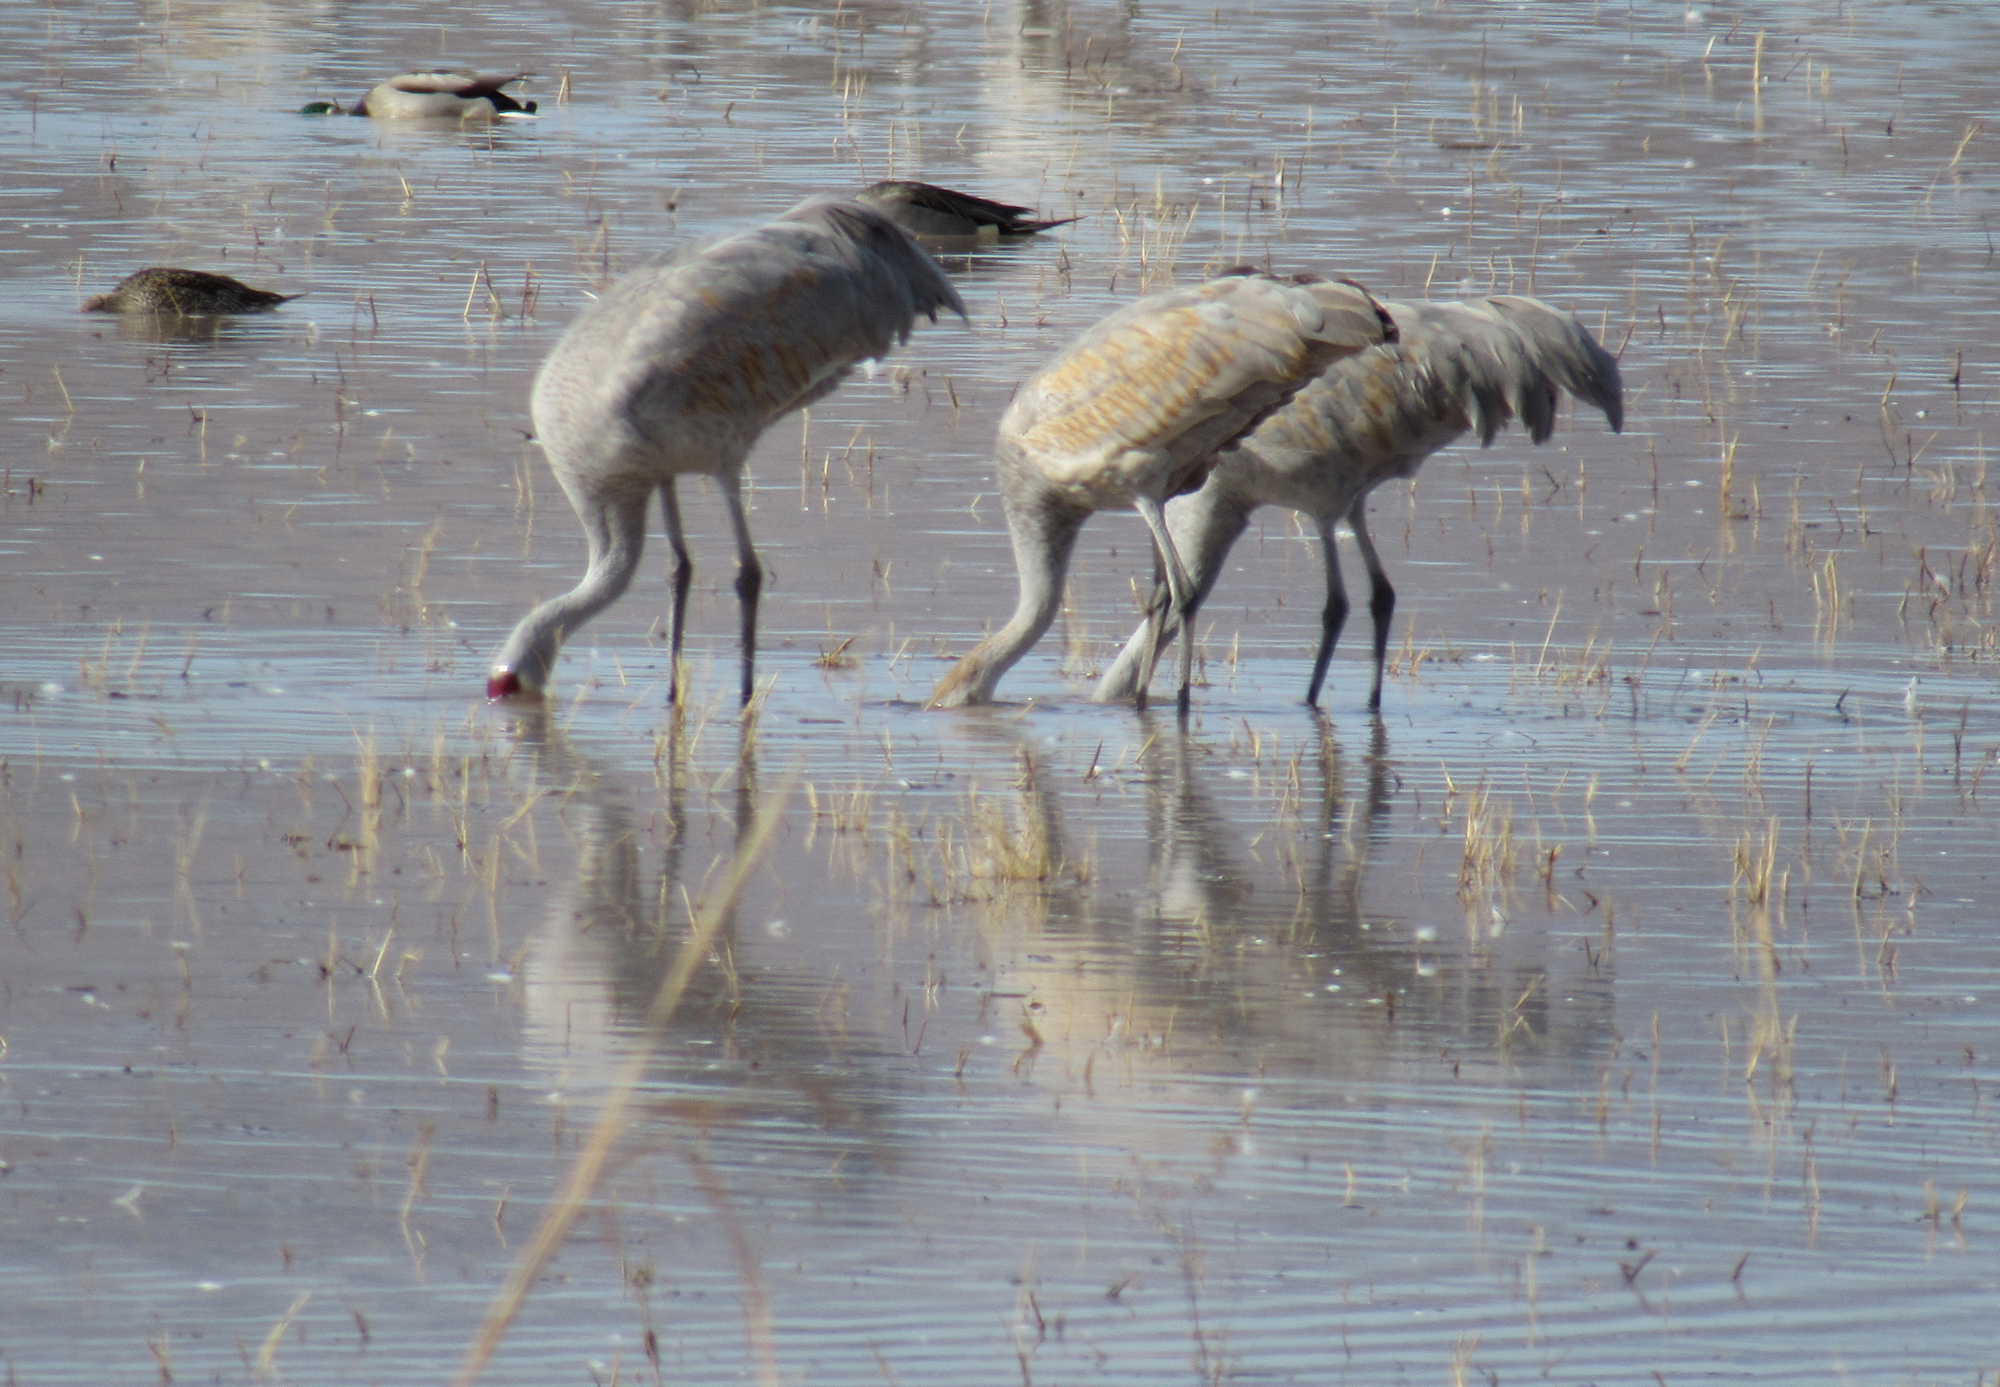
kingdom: Animalia
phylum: Chordata
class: Aves
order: Gruiformes
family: Gruidae
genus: Grus
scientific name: Grus canadensis
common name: Sandhill crane
